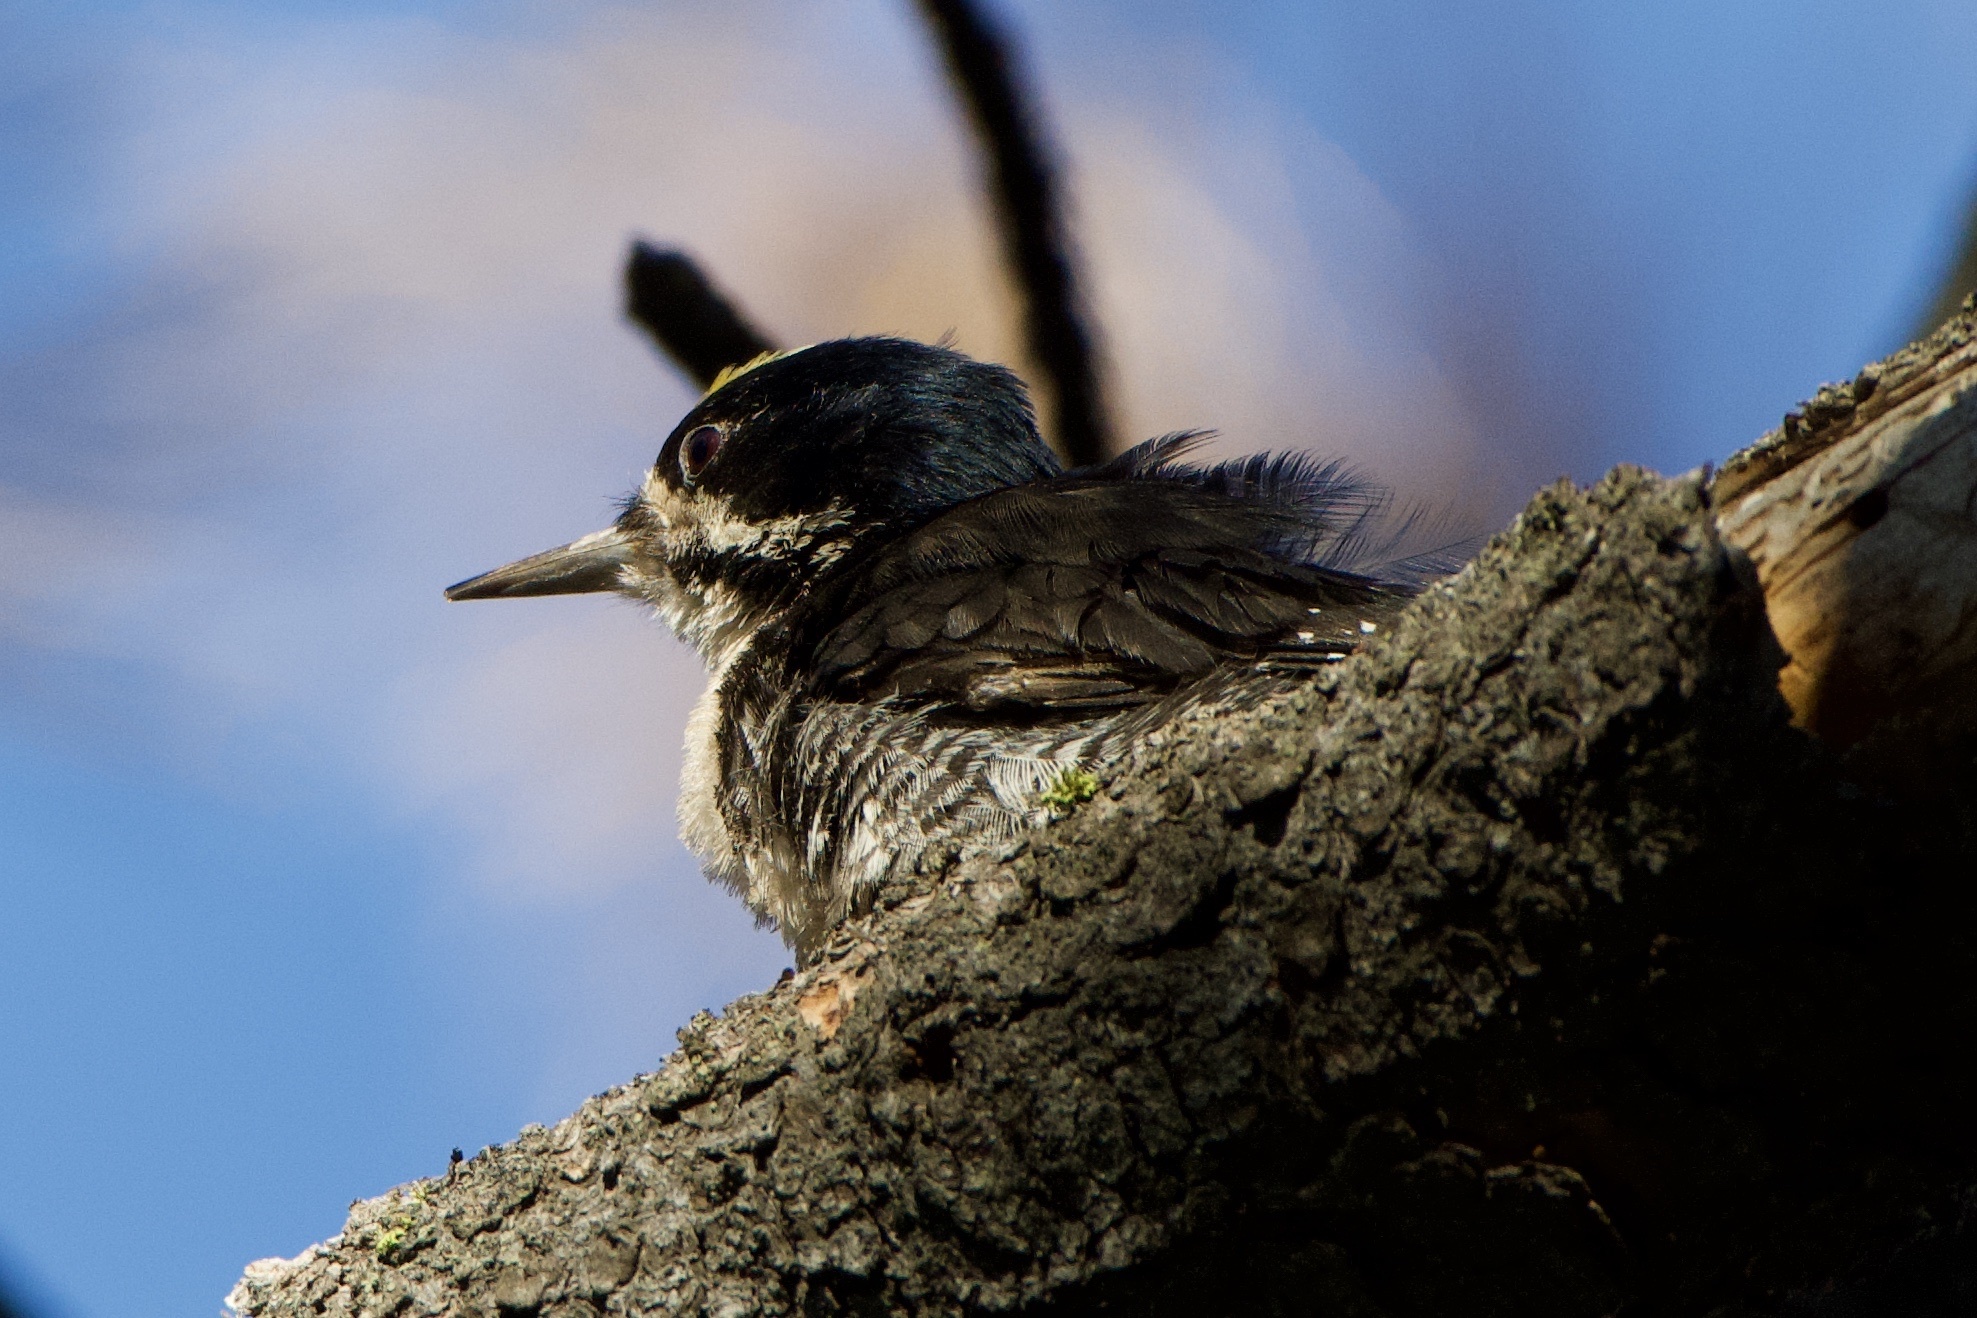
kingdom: Animalia
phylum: Chordata
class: Aves
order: Piciformes
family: Picidae
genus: Picoides
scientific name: Picoides arcticus
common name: Black-backed woodpecker
